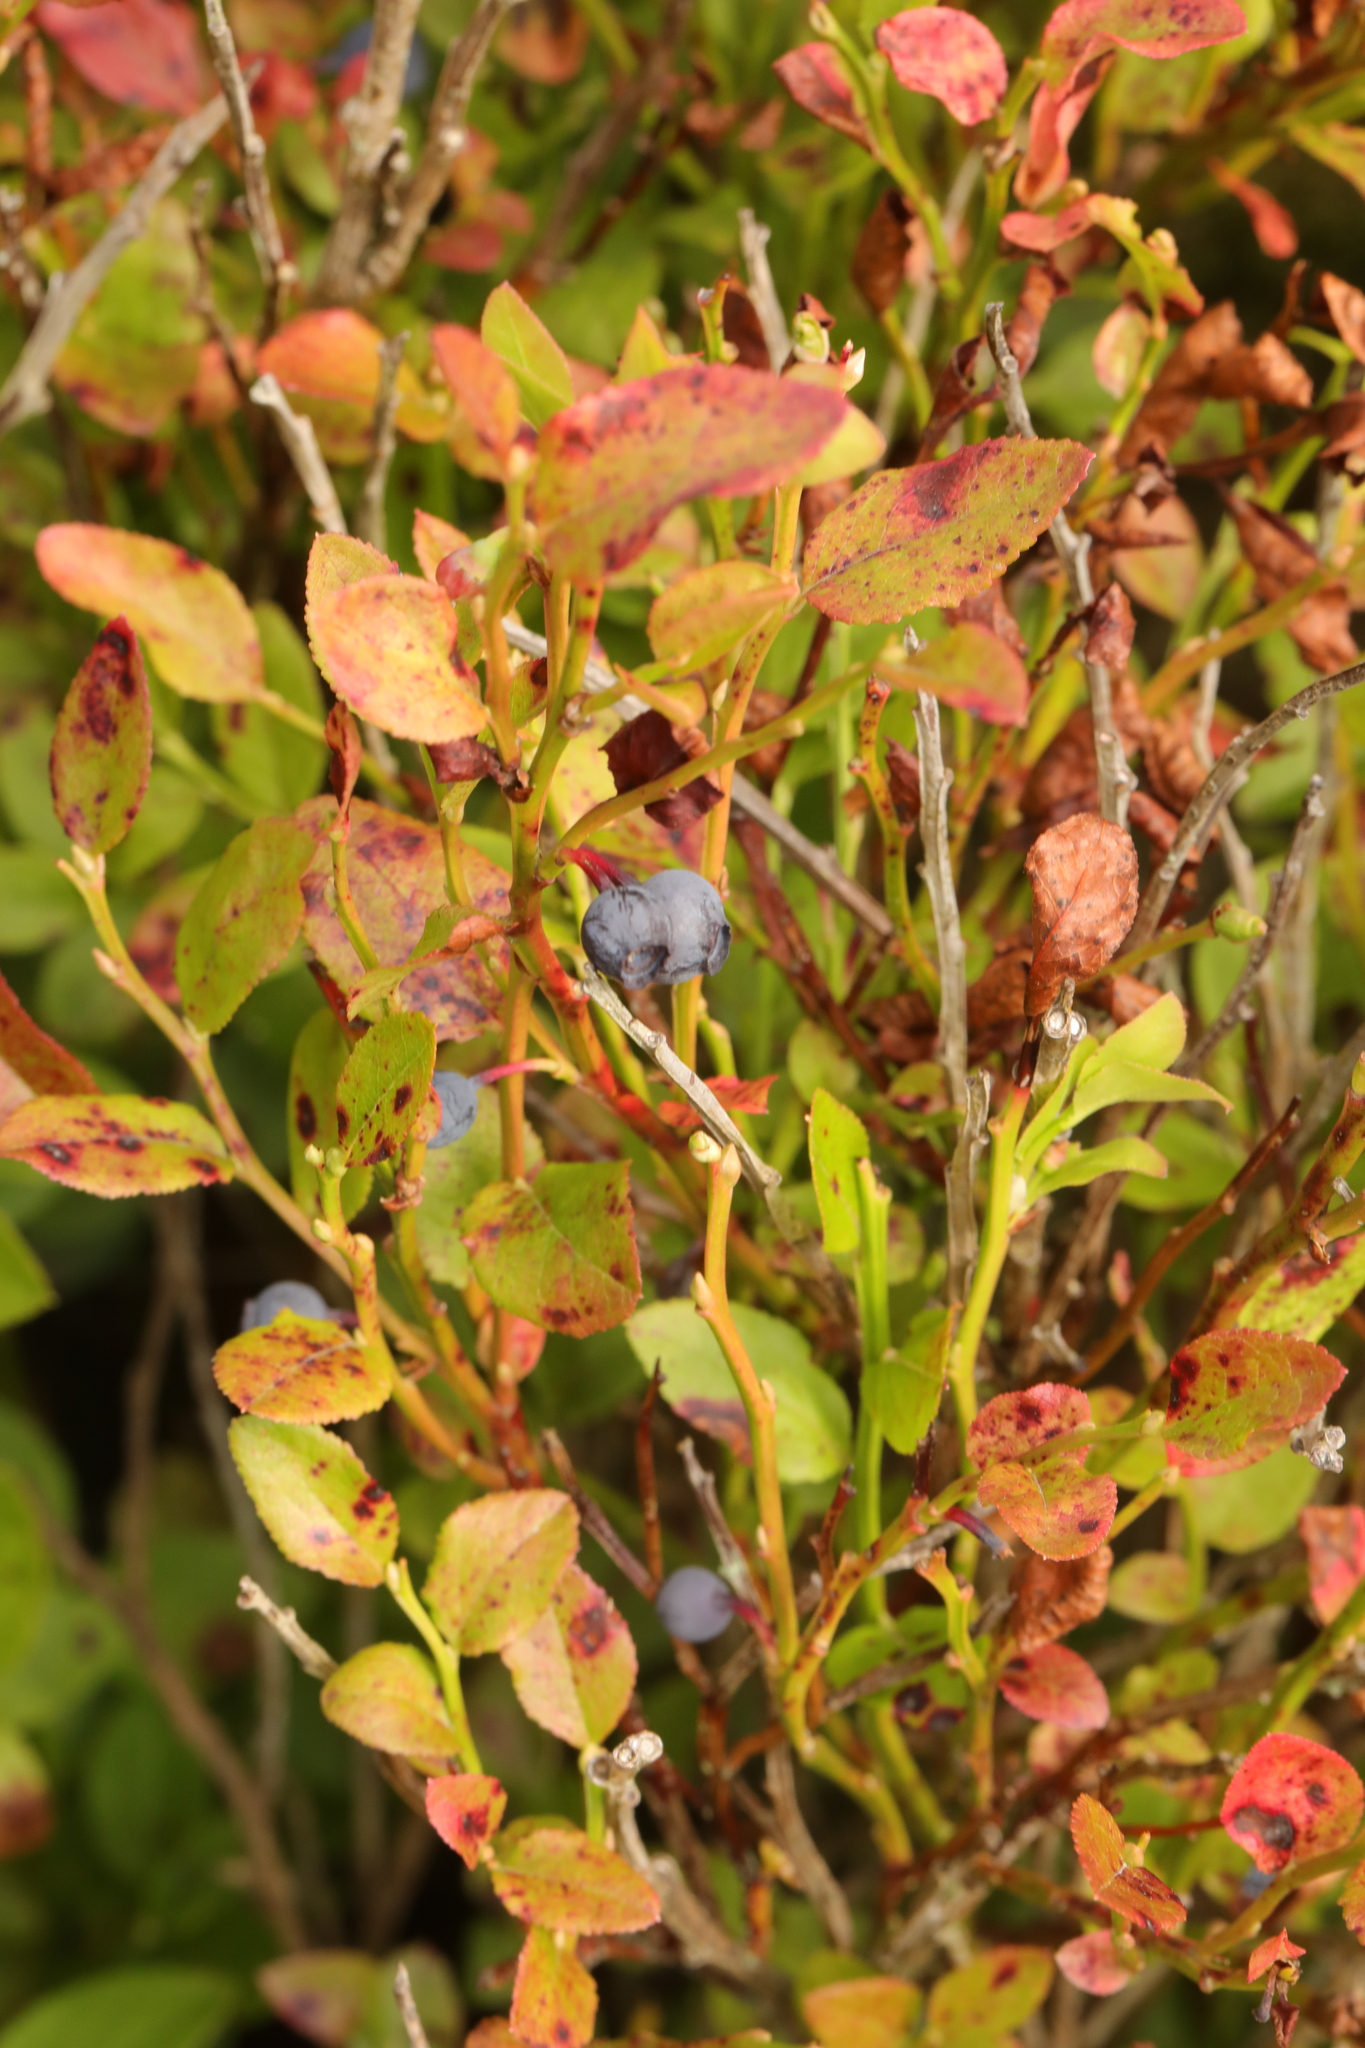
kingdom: Plantae
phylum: Tracheophyta
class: Magnoliopsida
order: Ericales
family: Ericaceae
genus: Vaccinium
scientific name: Vaccinium myrtillus
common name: Bilberry
